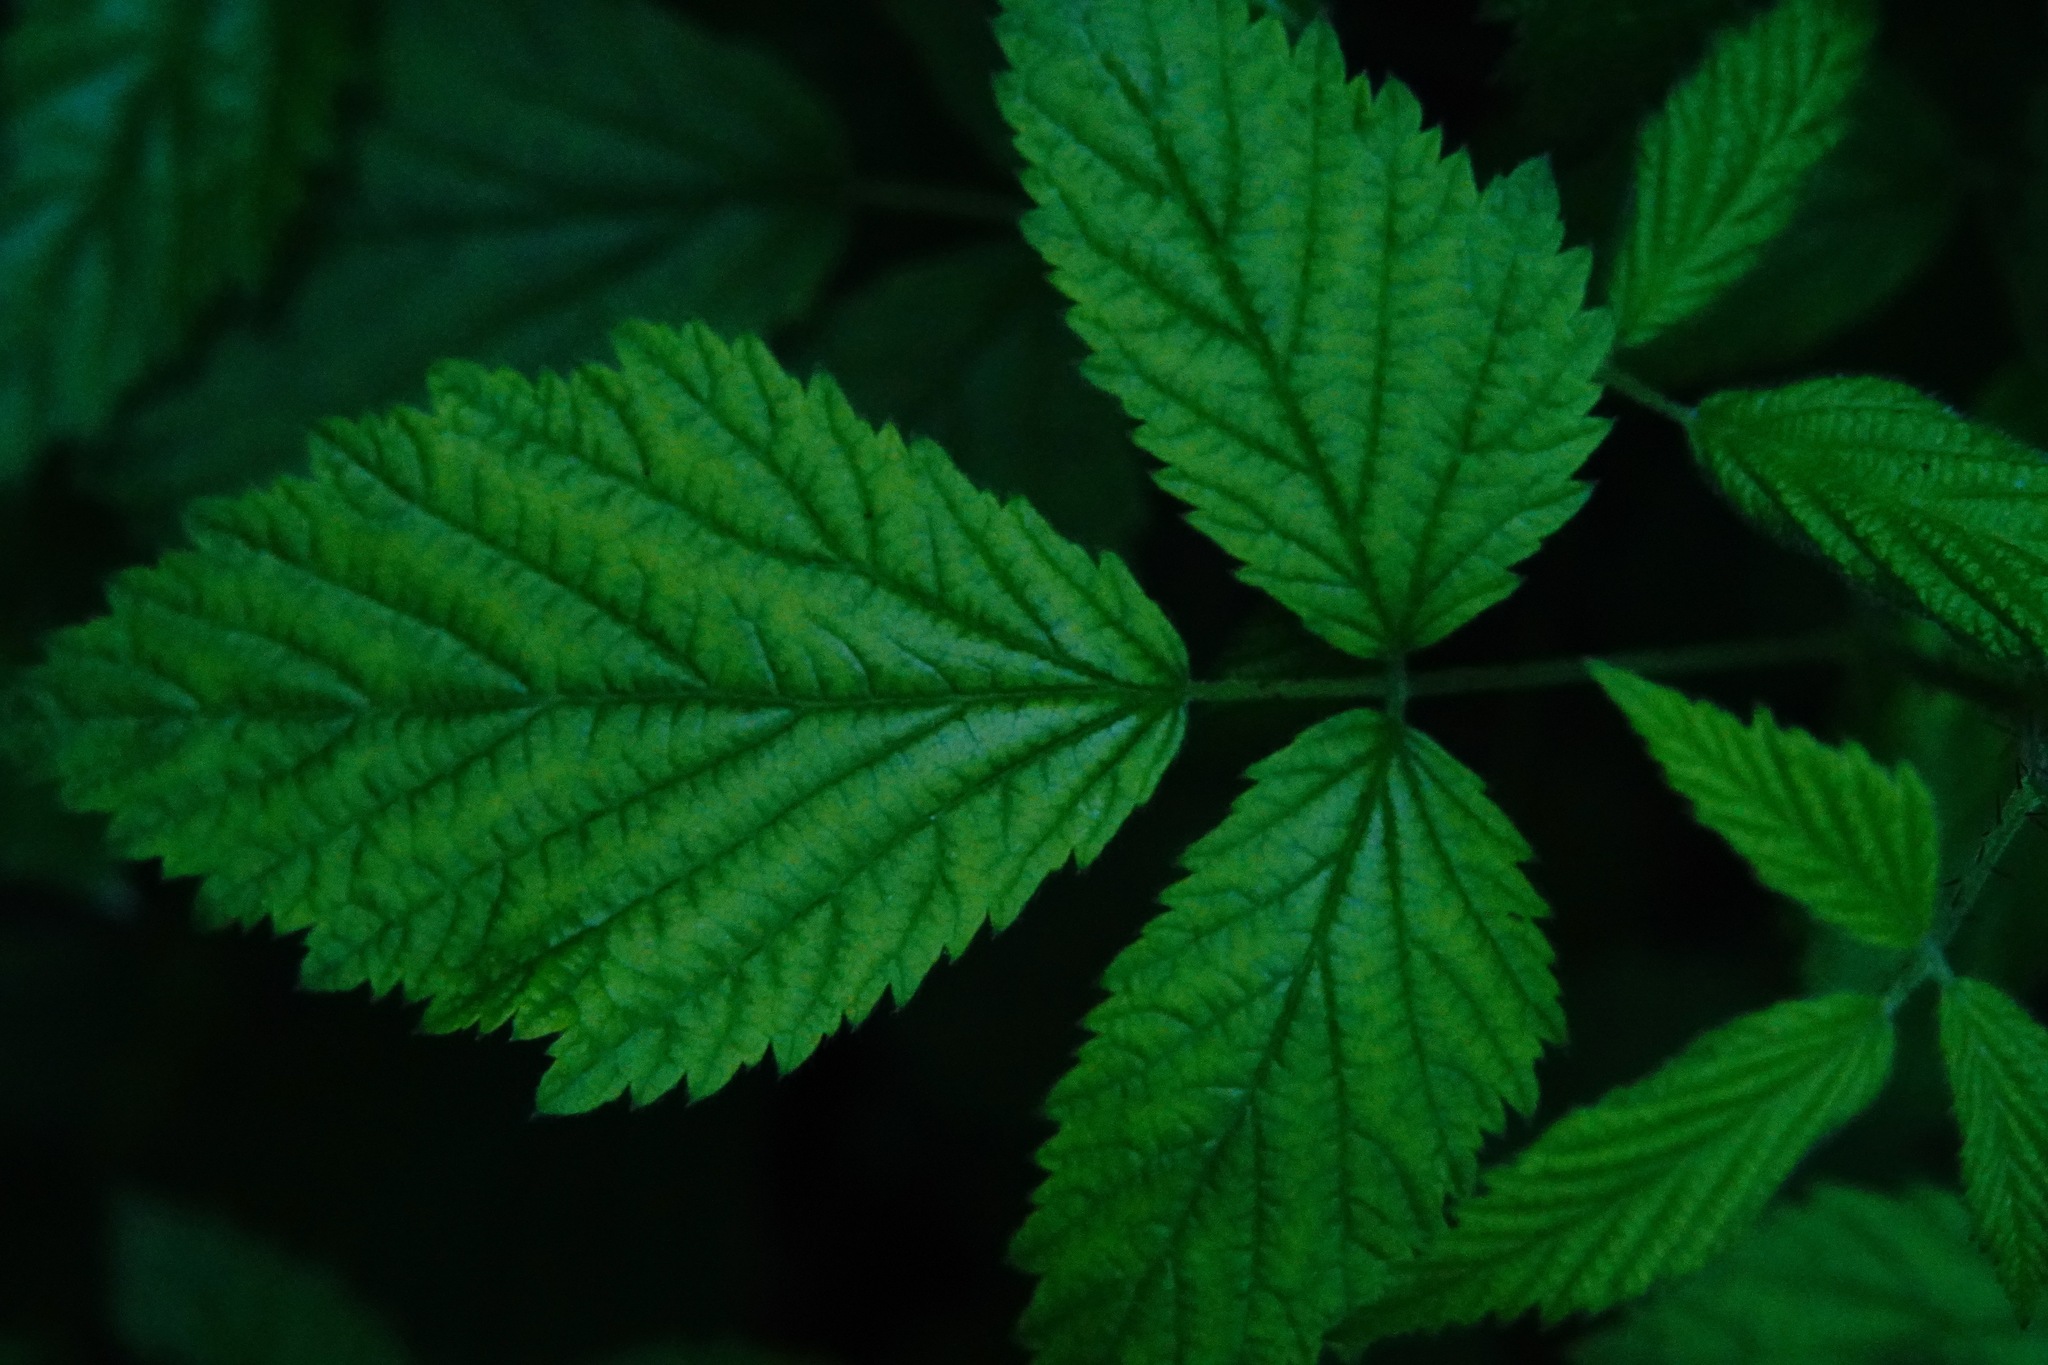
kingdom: Plantae
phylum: Tracheophyta
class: Magnoliopsida
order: Rosales
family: Rosaceae
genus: Rubus
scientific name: Rubus ursinus
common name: Pacific blackberry
